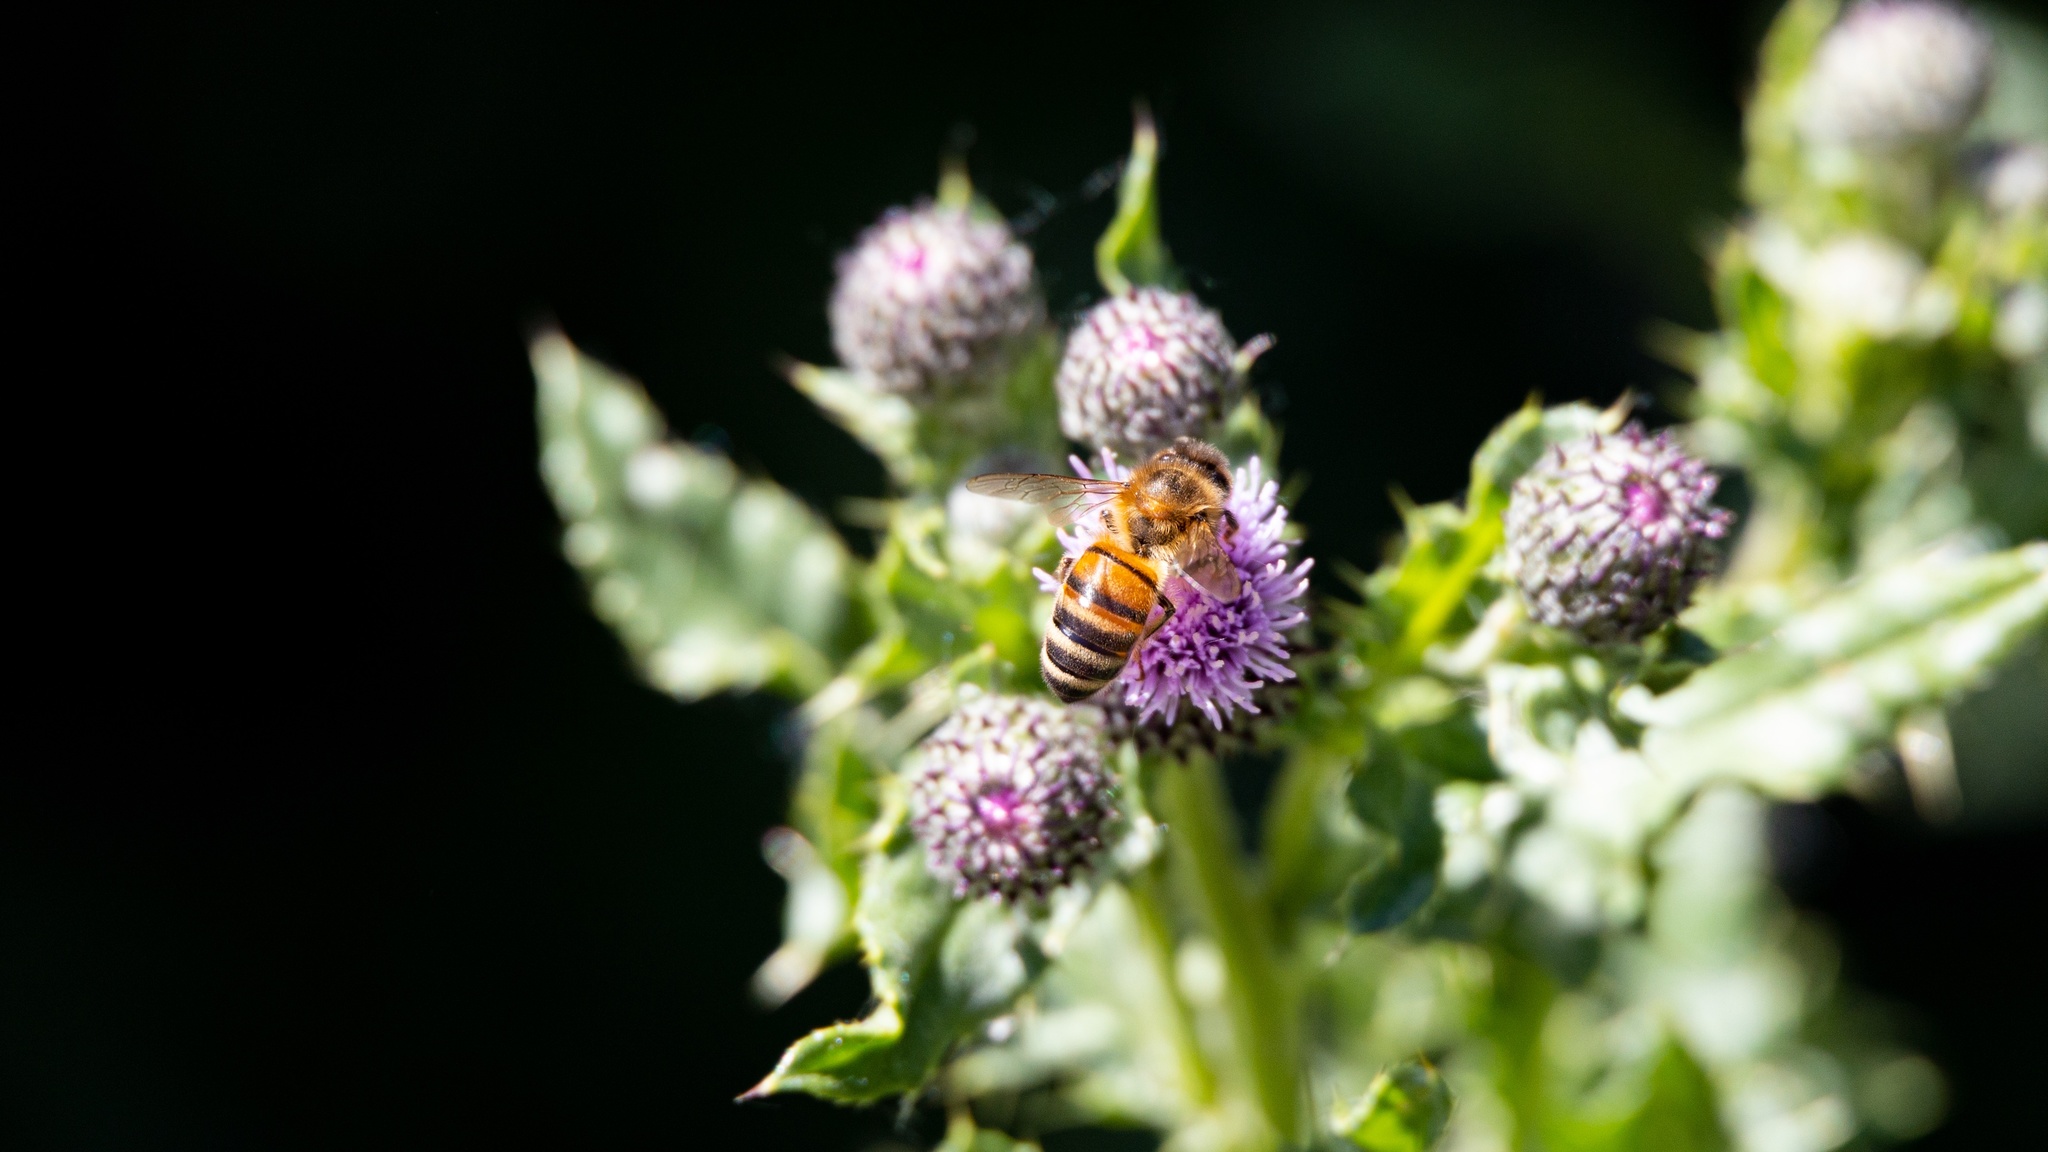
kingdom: Animalia
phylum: Arthropoda
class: Insecta
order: Hymenoptera
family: Apidae
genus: Apis
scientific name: Apis mellifera
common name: Honey bee
